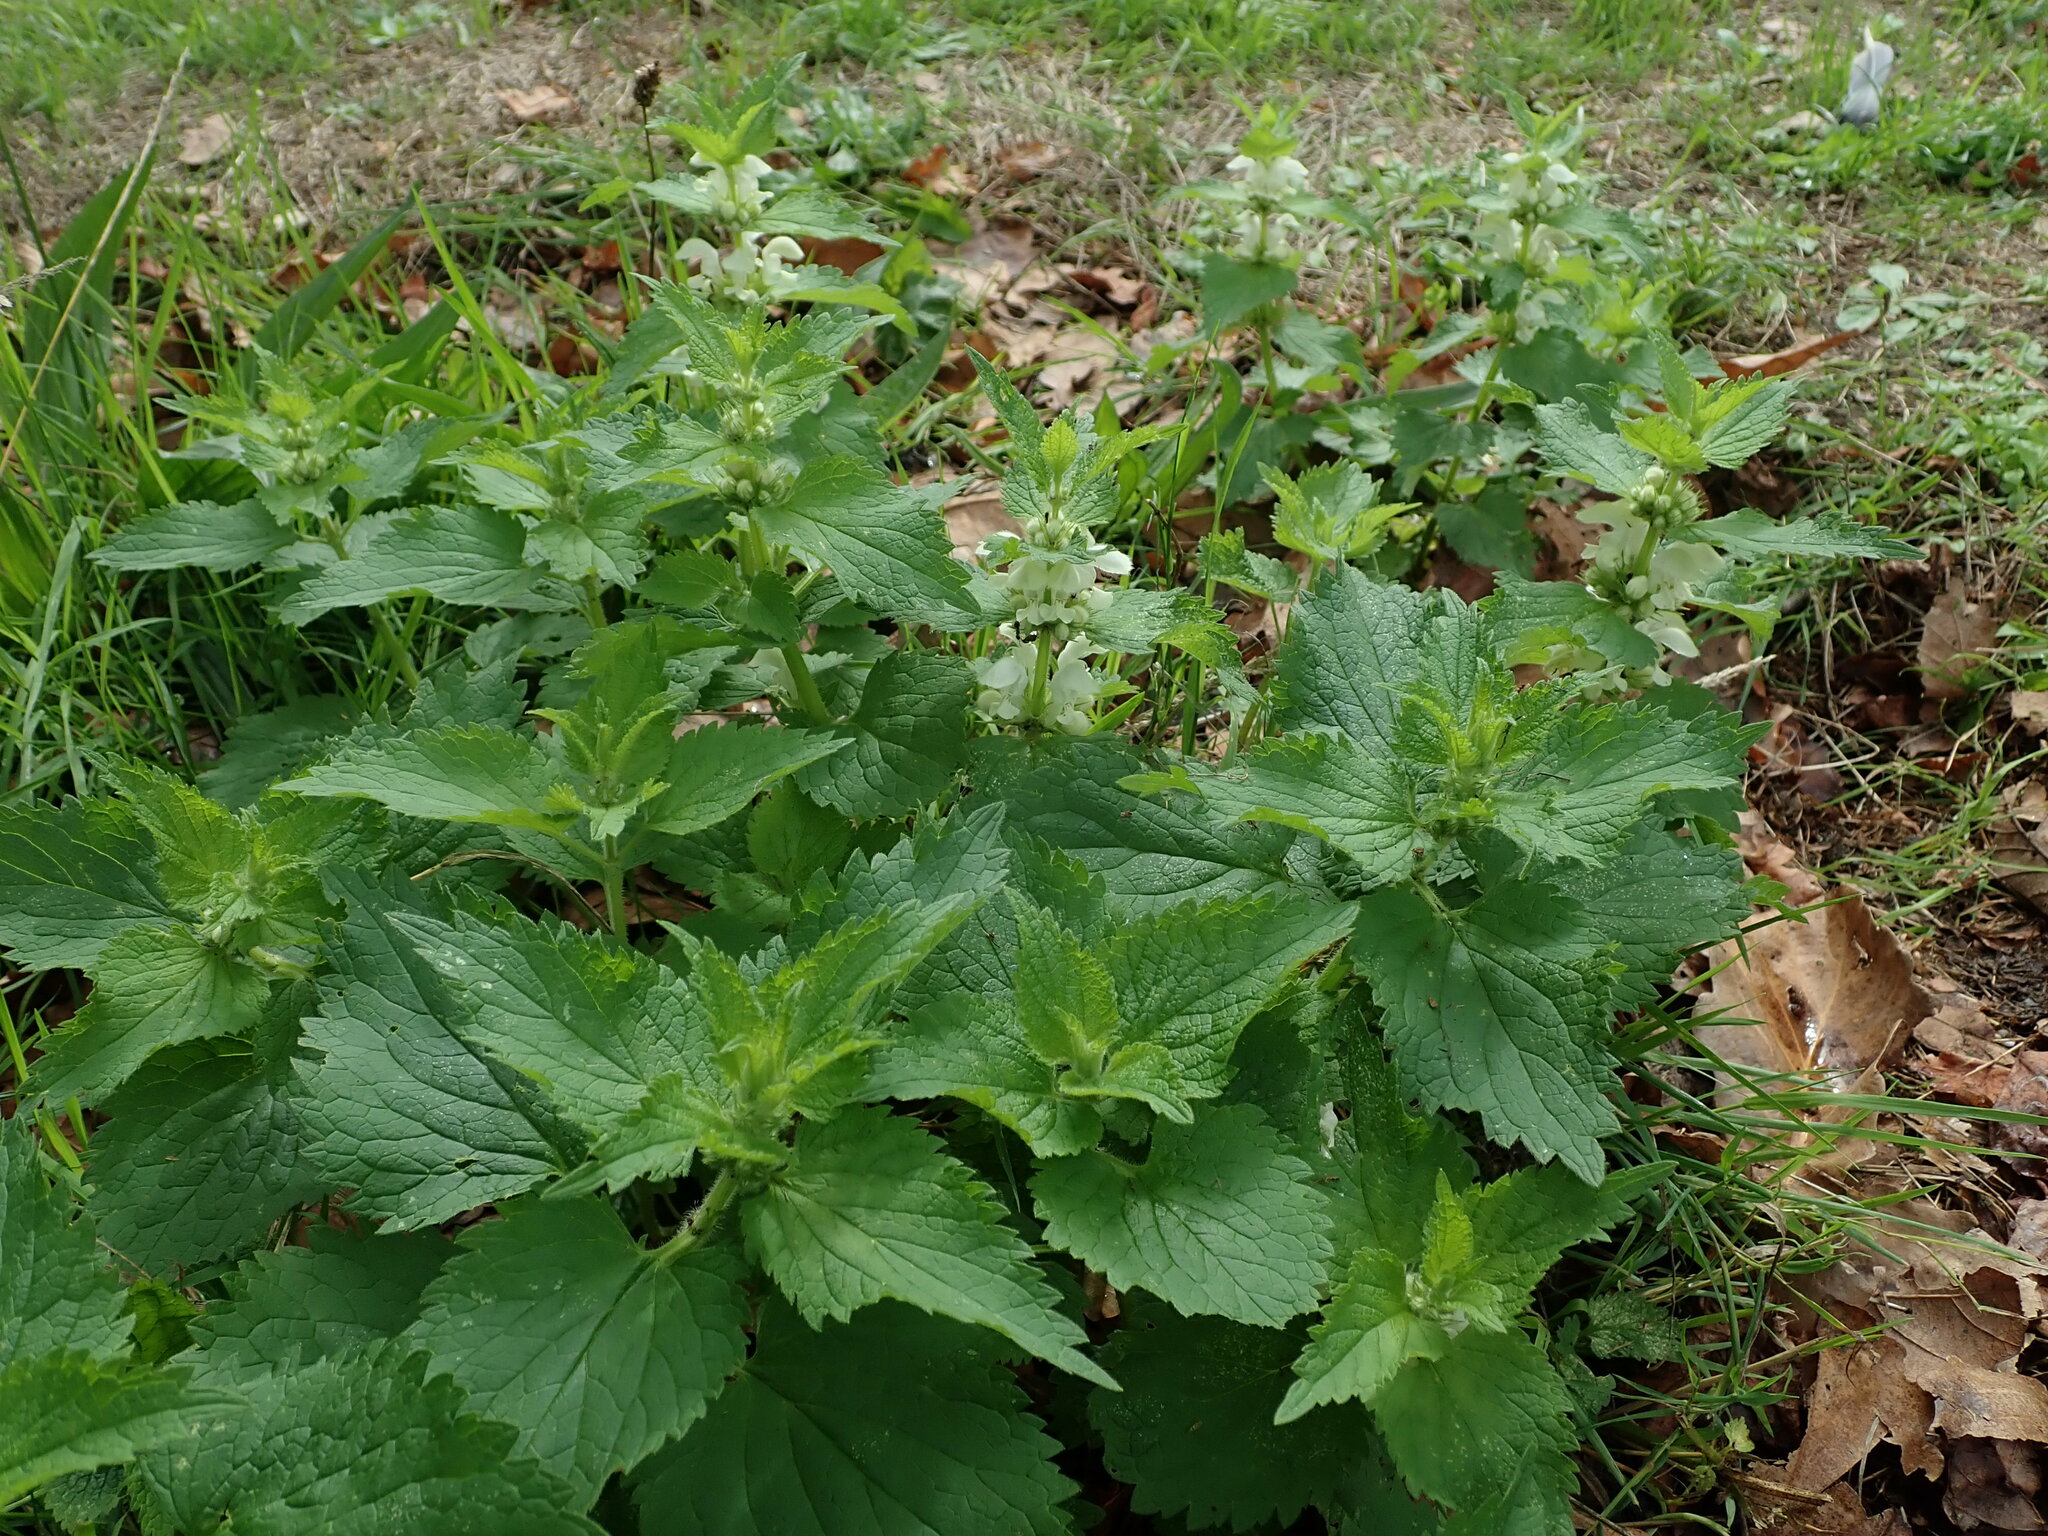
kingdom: Plantae
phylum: Tracheophyta
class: Magnoliopsida
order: Lamiales
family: Lamiaceae
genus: Lamium
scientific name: Lamium album
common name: White dead-nettle
